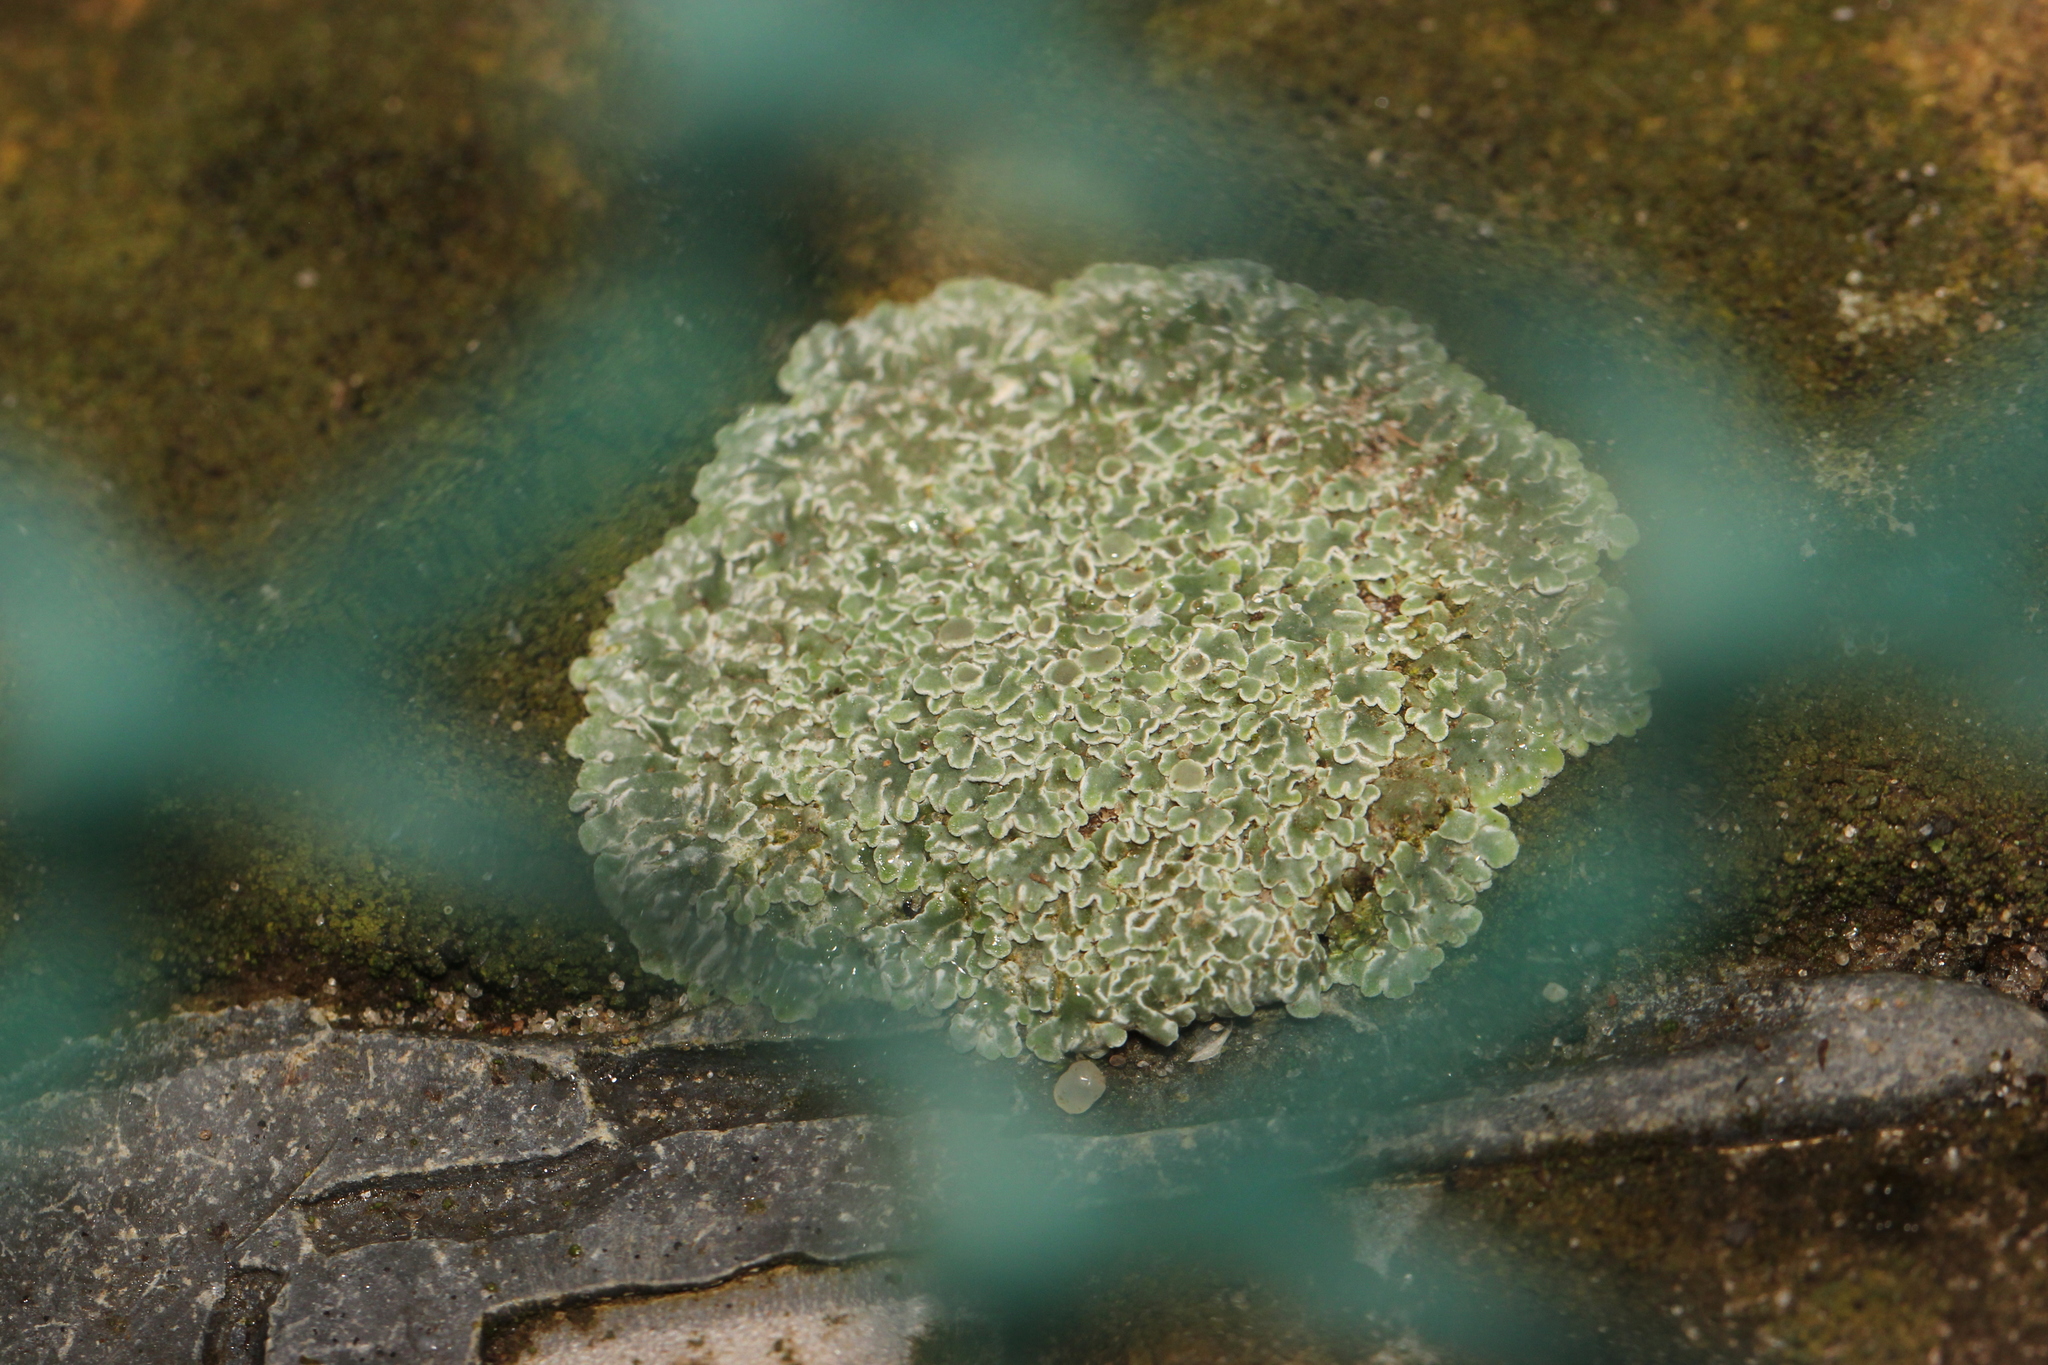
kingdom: Fungi
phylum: Ascomycota
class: Lecanoromycetes
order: Lecanorales
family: Lecanoraceae
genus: Protoparmeliopsis
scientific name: Protoparmeliopsis muralis
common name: Stonewall rim lichen
